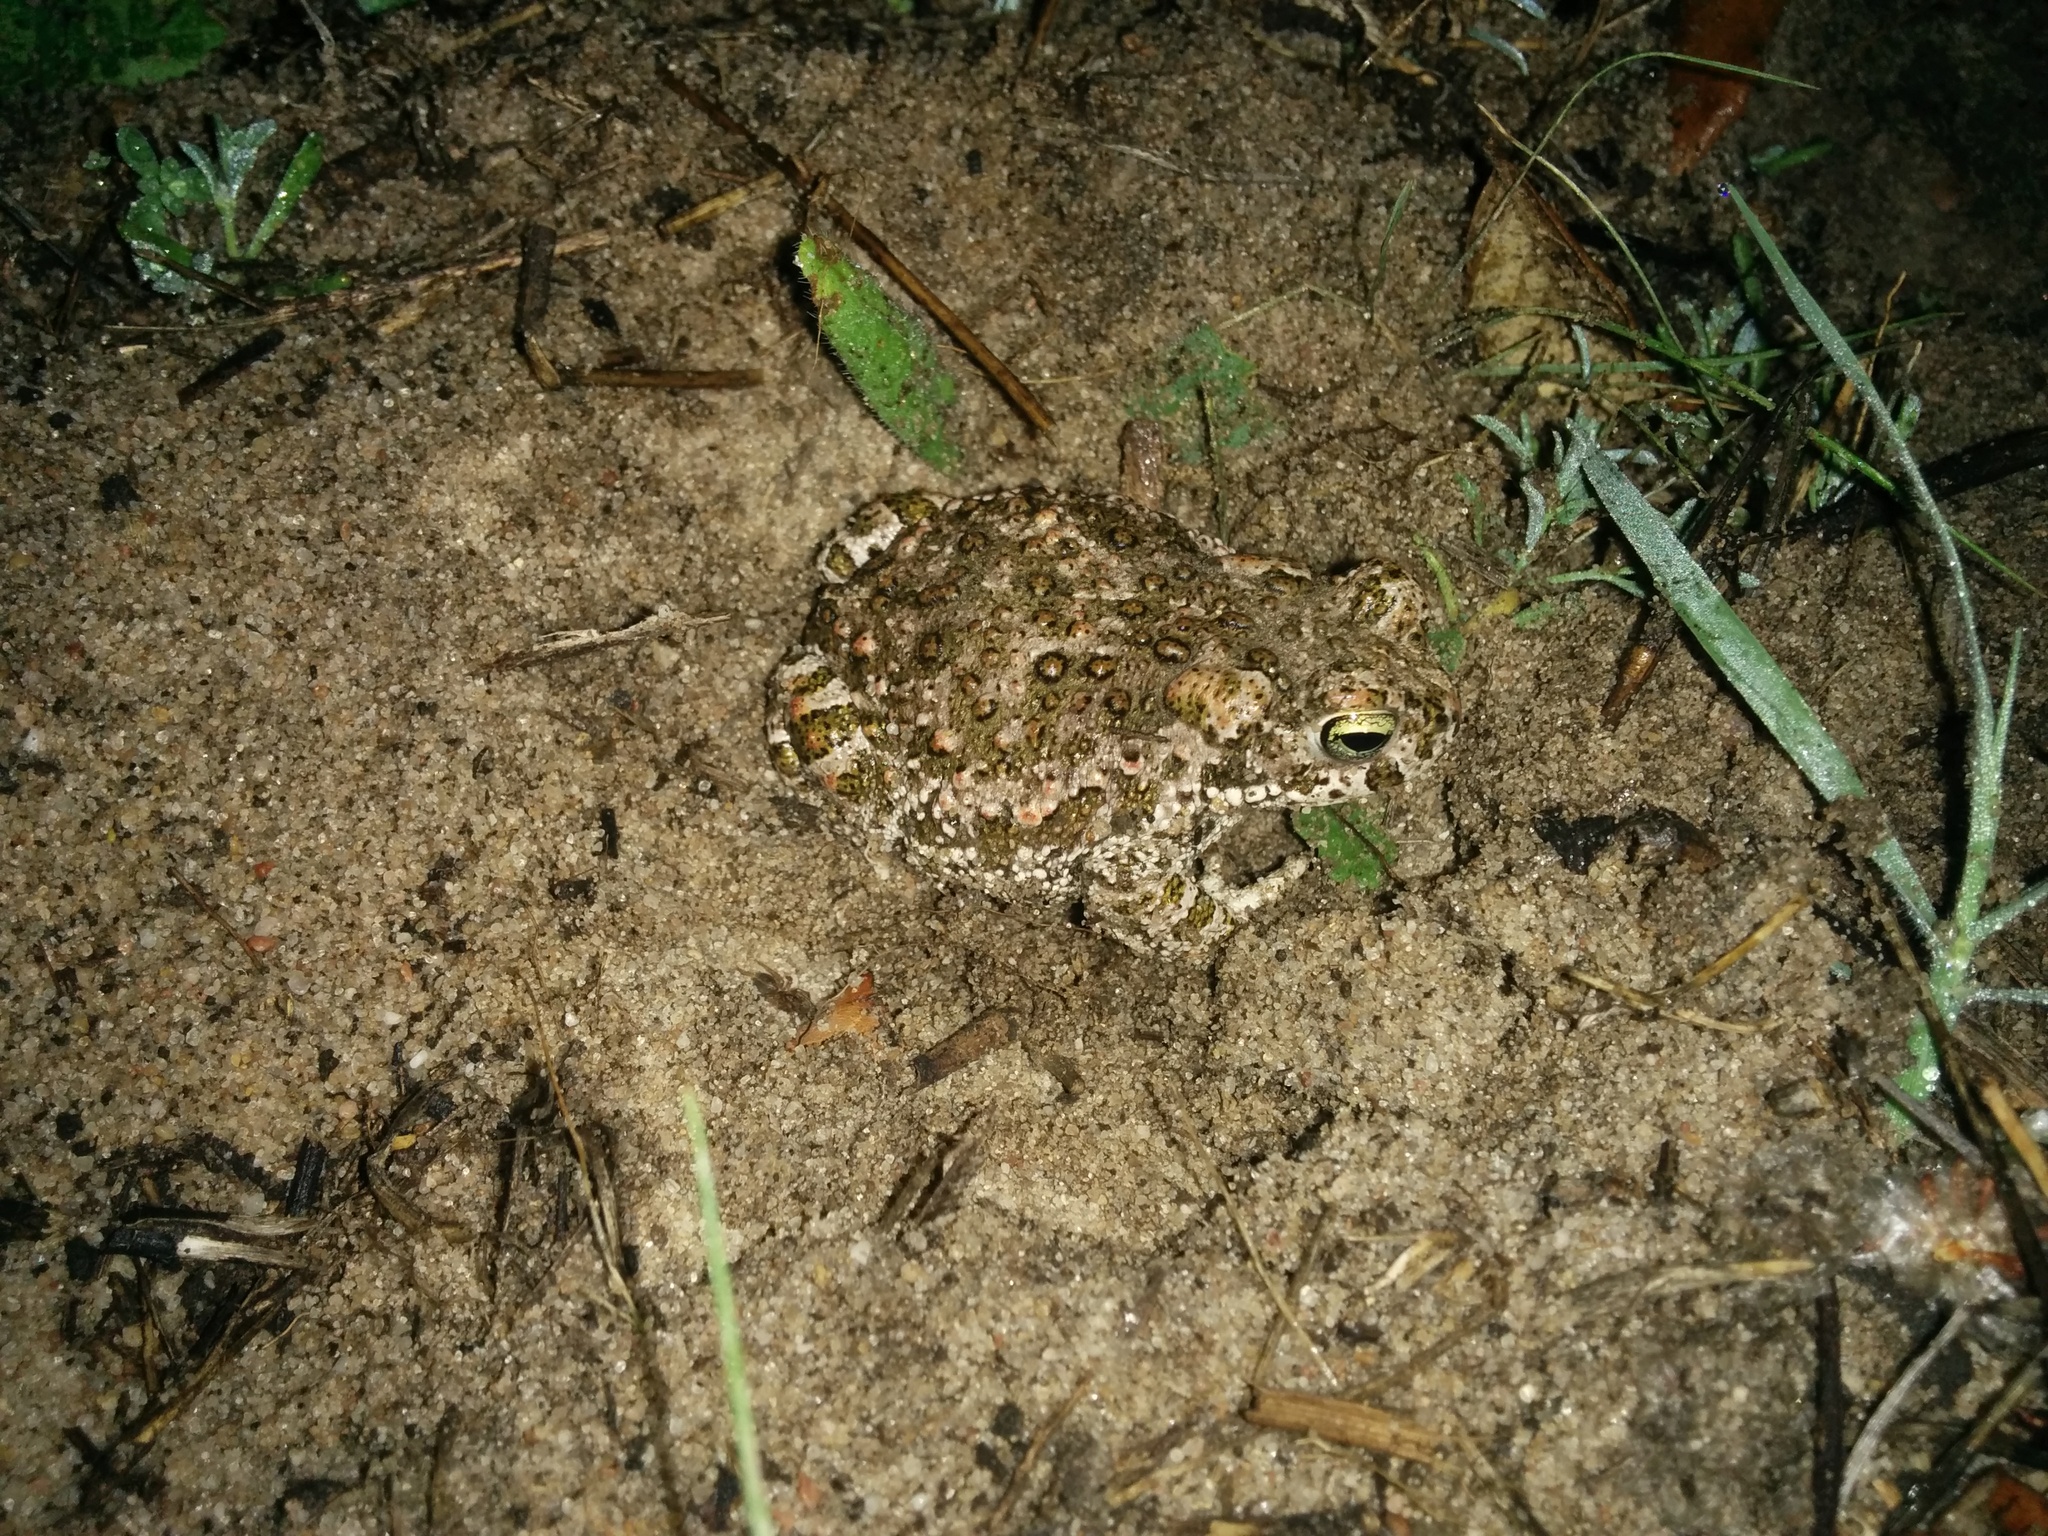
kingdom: Animalia
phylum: Chordata
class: Amphibia
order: Anura
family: Bufonidae
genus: Epidalea
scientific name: Epidalea calamita
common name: Natterjack toad
